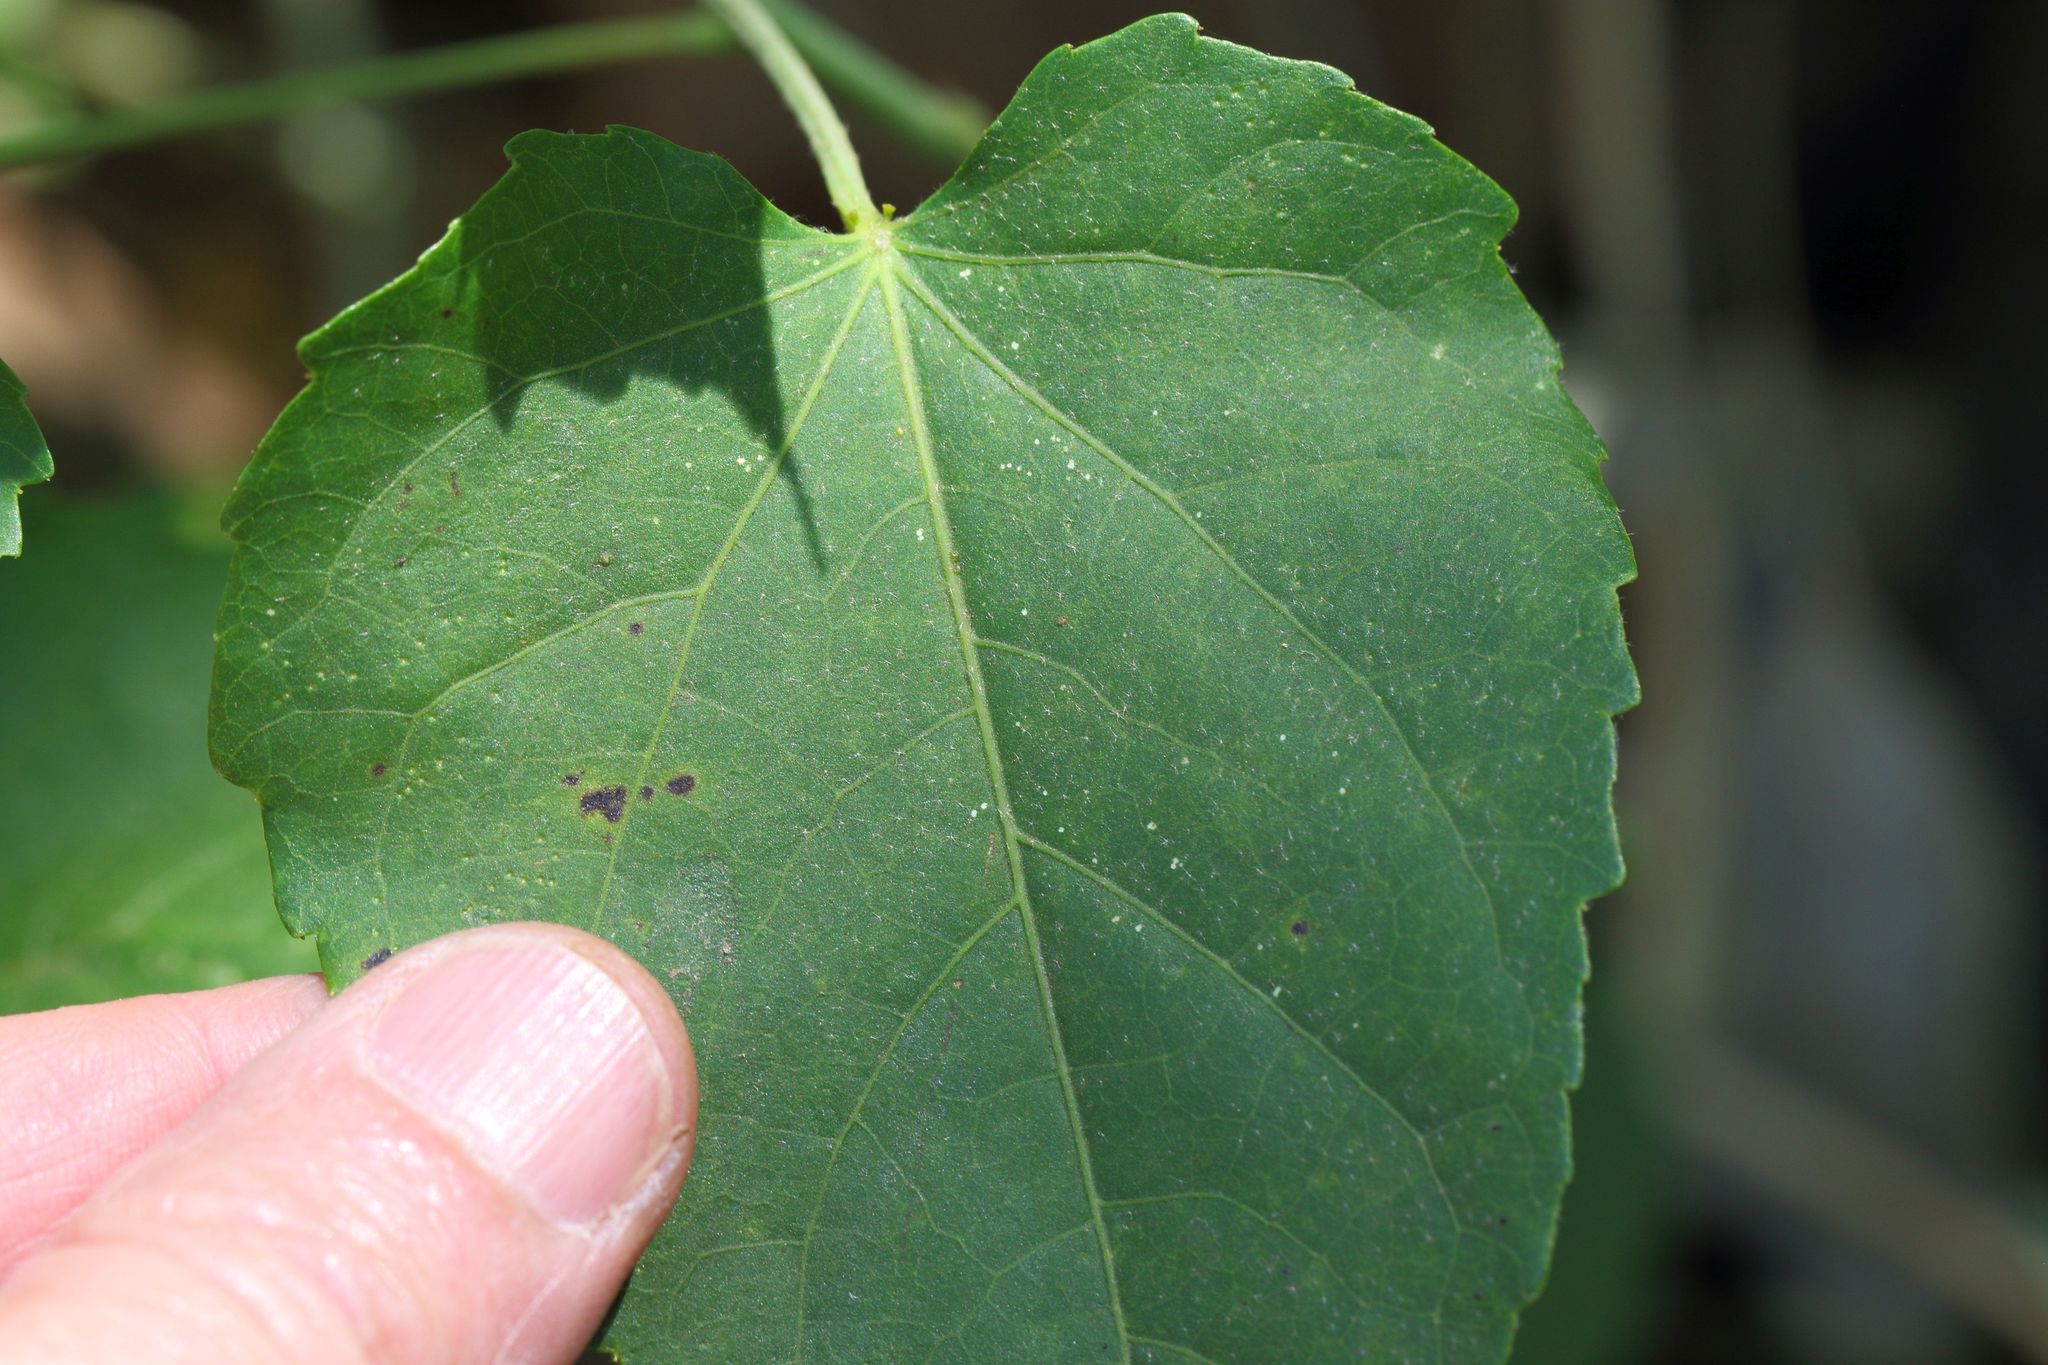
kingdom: Plantae
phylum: Tracheophyta
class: Magnoliopsida
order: Malpighiales
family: Euphorbiaceae
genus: Croton
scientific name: Croton megalobotrys
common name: Large fever berry
